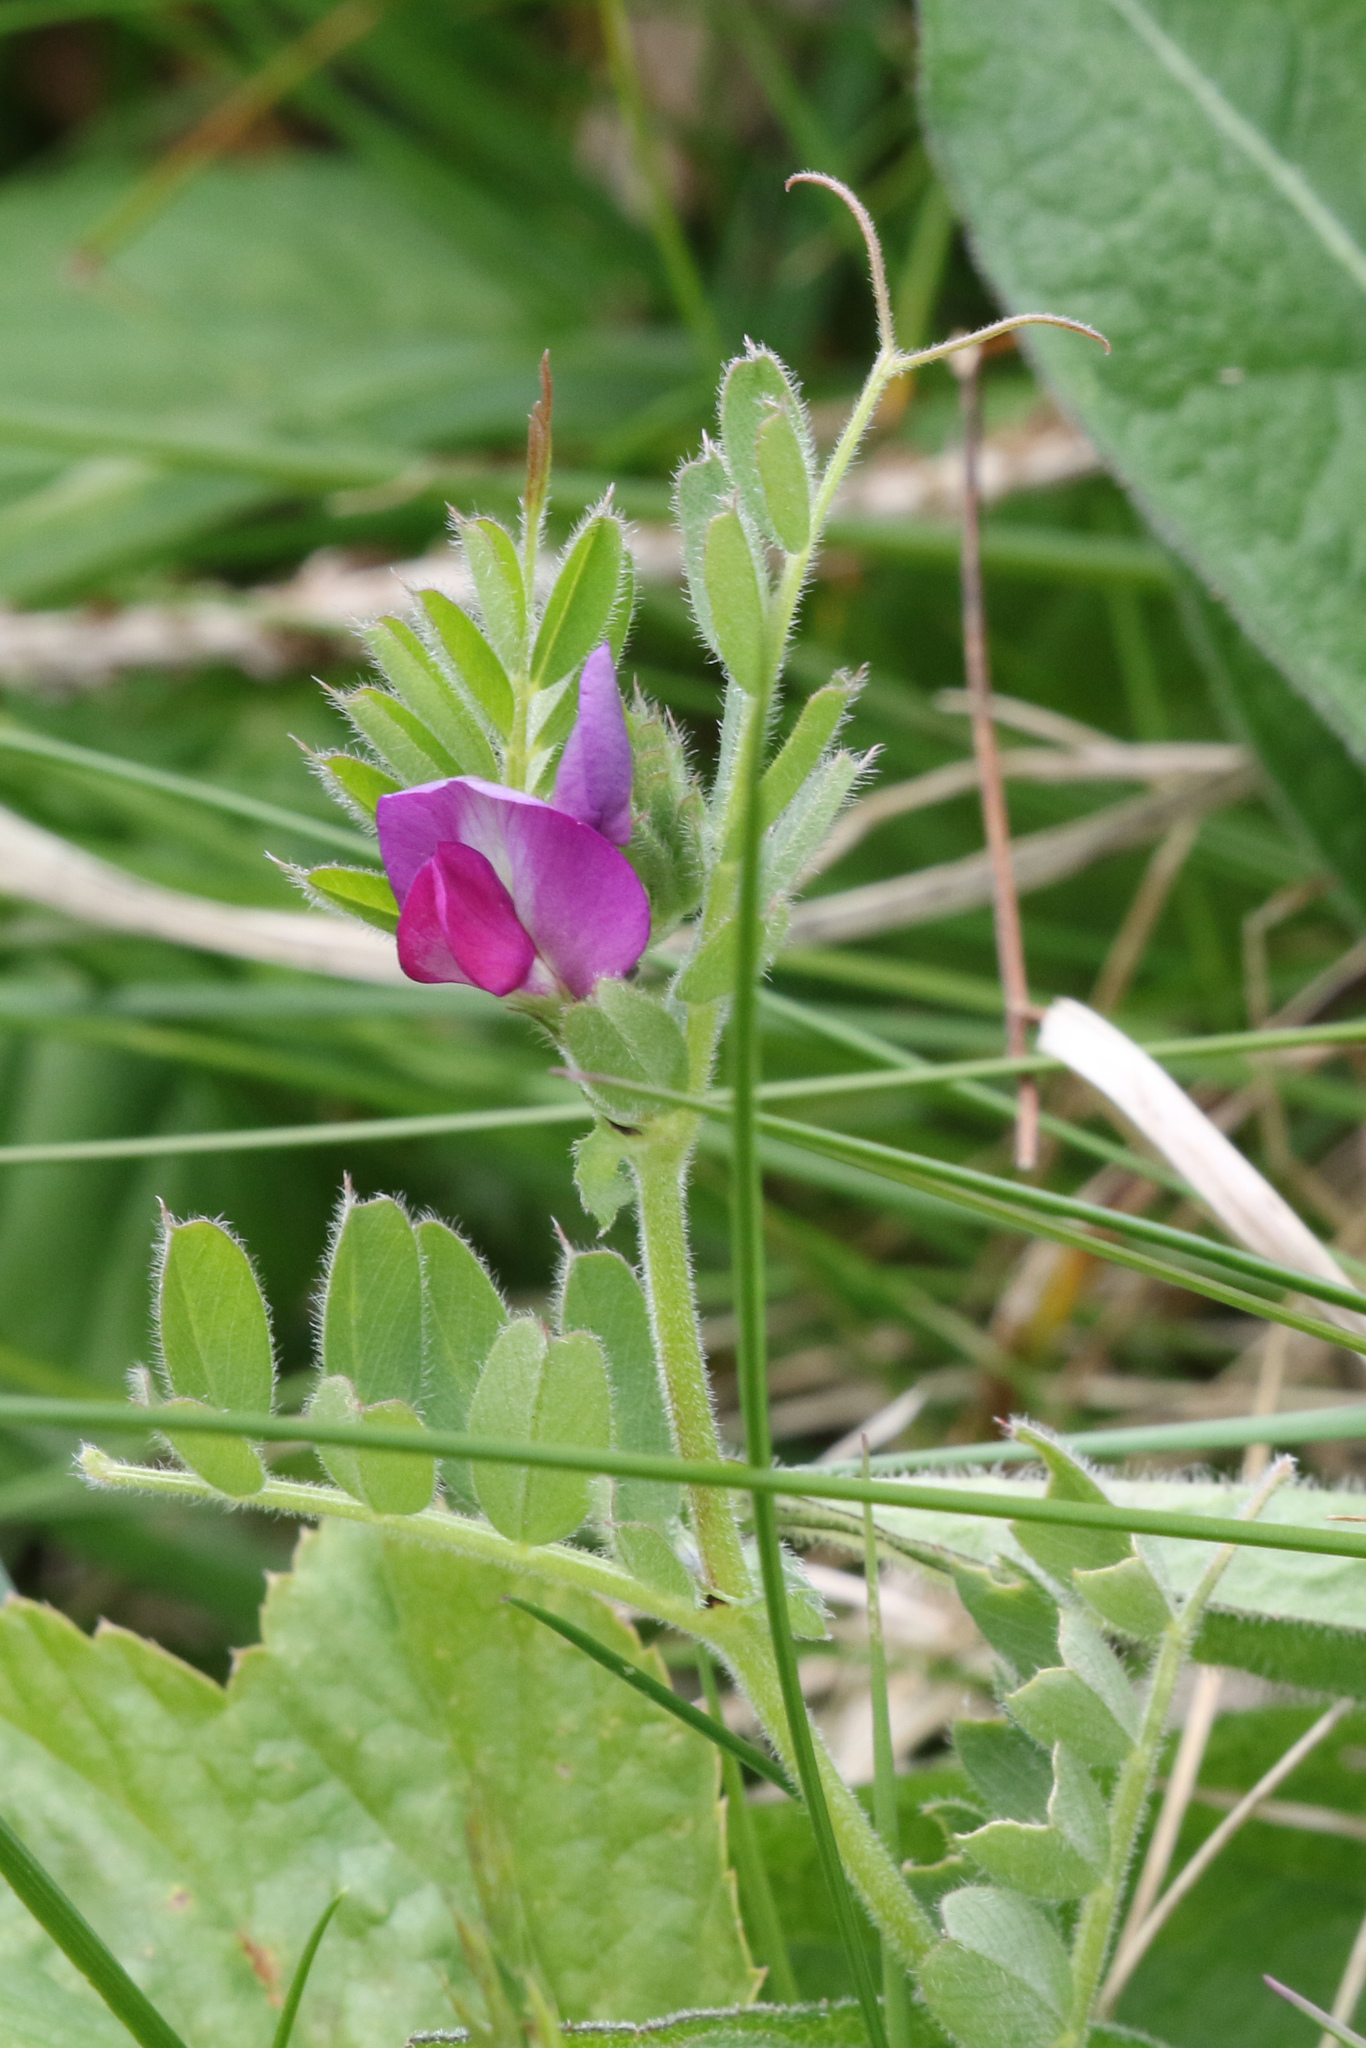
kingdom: Plantae
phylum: Tracheophyta
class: Magnoliopsida
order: Fabales
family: Fabaceae
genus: Vicia
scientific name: Vicia sativa
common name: Garden vetch
